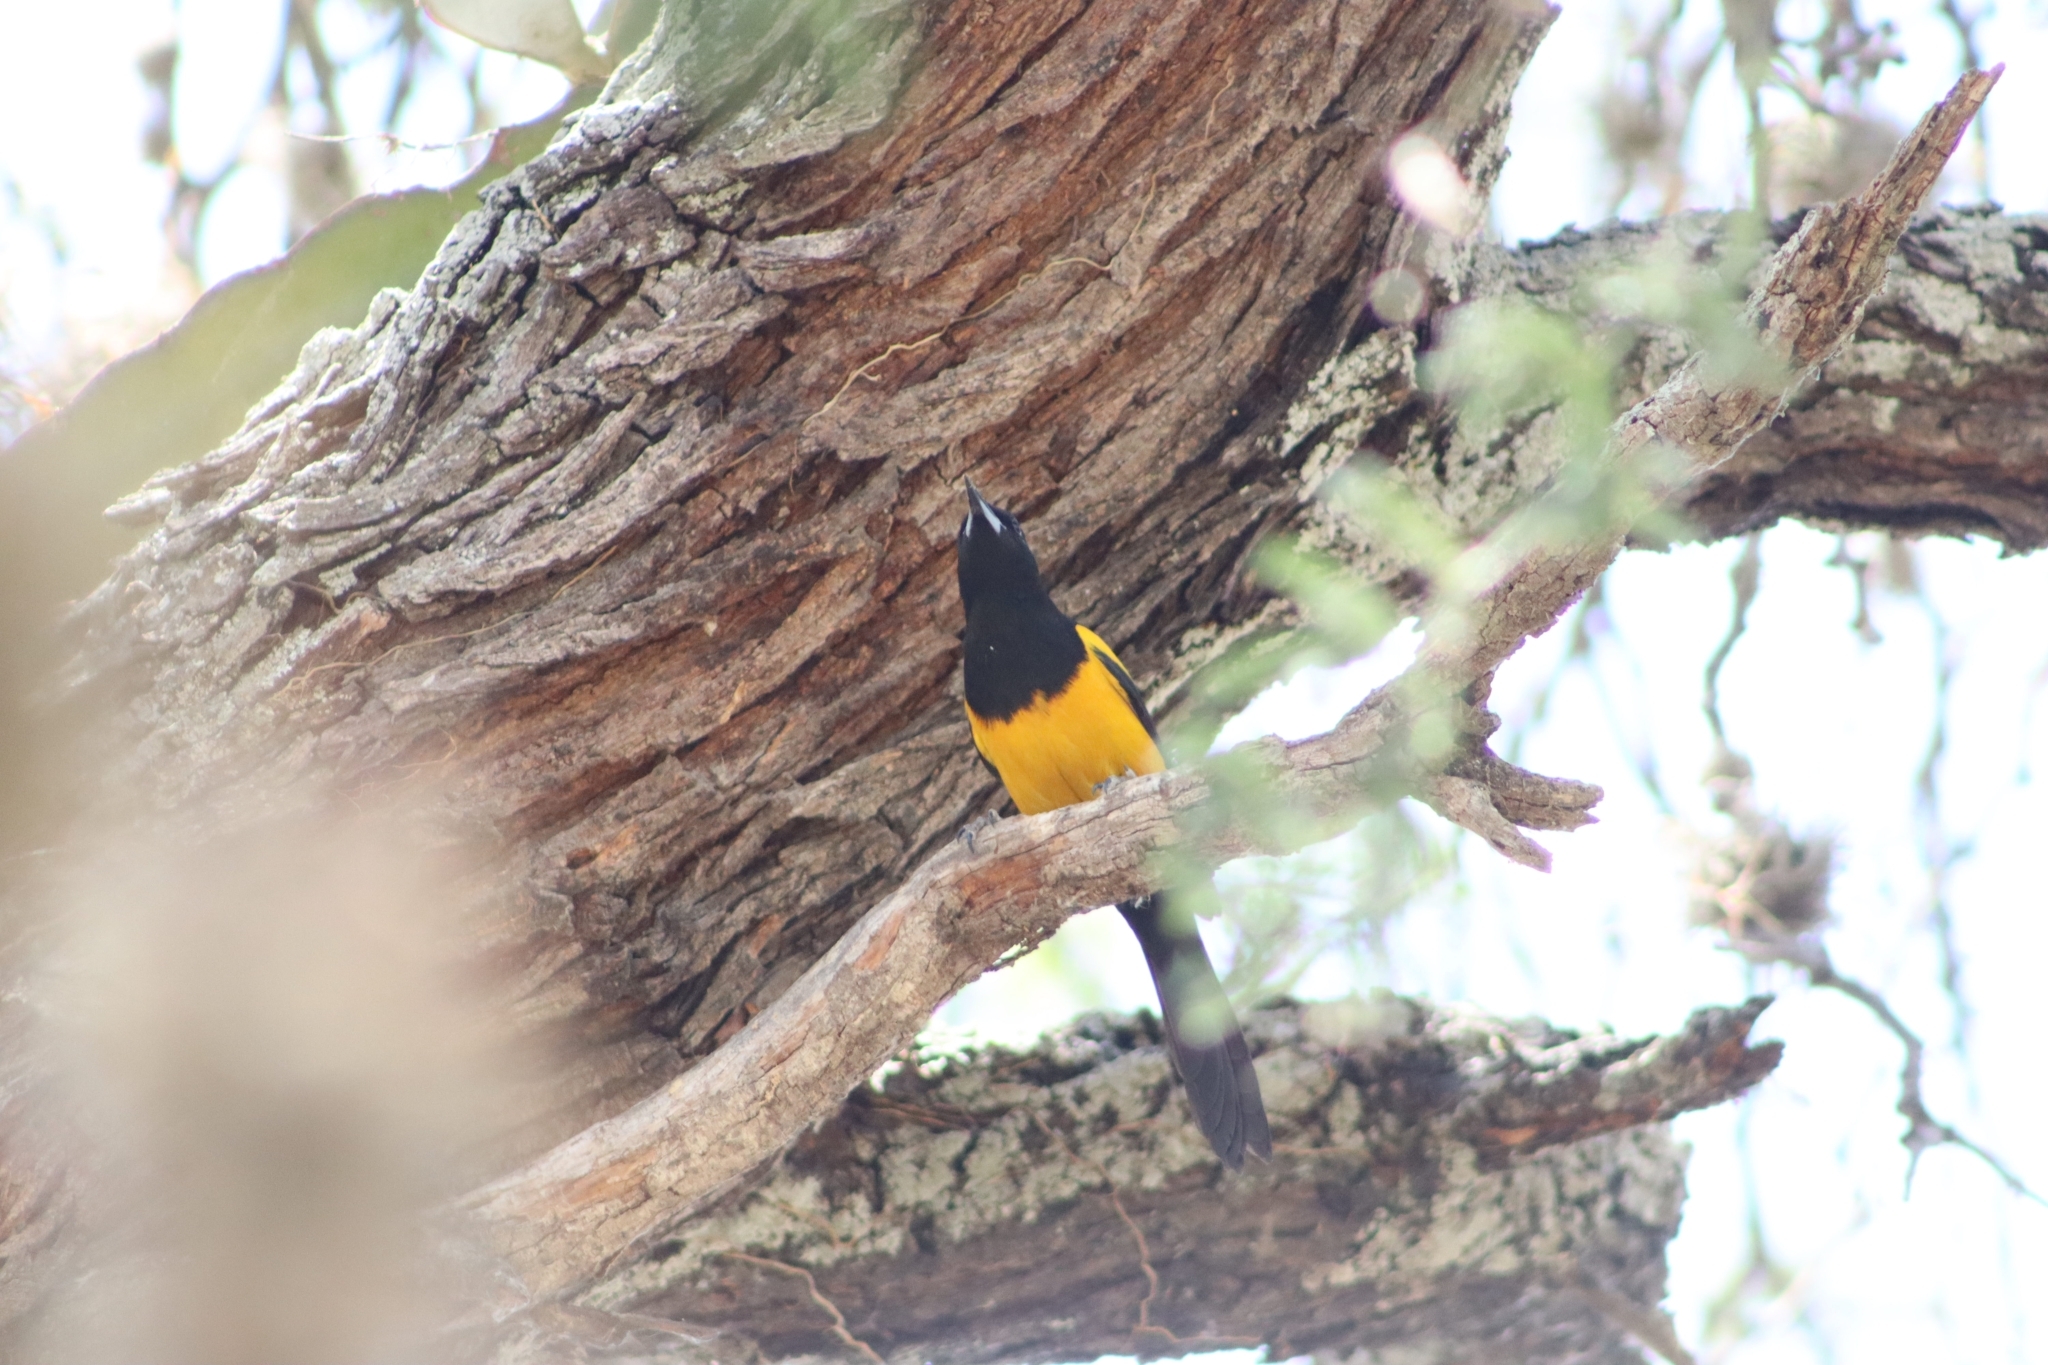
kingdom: Animalia
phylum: Chordata
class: Aves
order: Passeriformes
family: Icteridae
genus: Icterus
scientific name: Icterus wagleri
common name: Black-vented oriole
